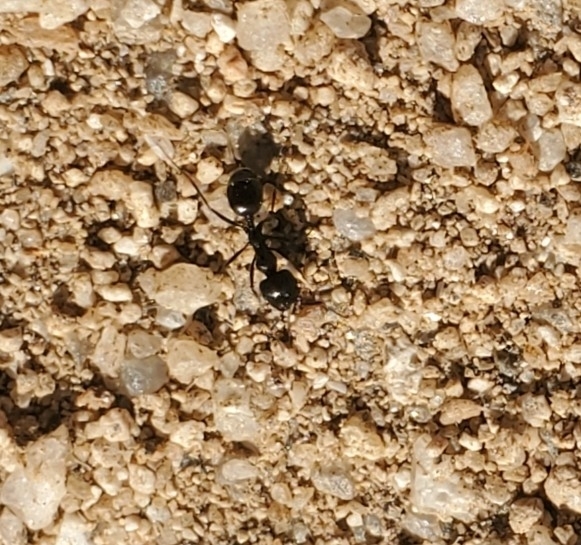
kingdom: Animalia
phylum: Arthropoda
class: Insecta
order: Hymenoptera
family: Formicidae
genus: Messor
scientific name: Messor pergandei
